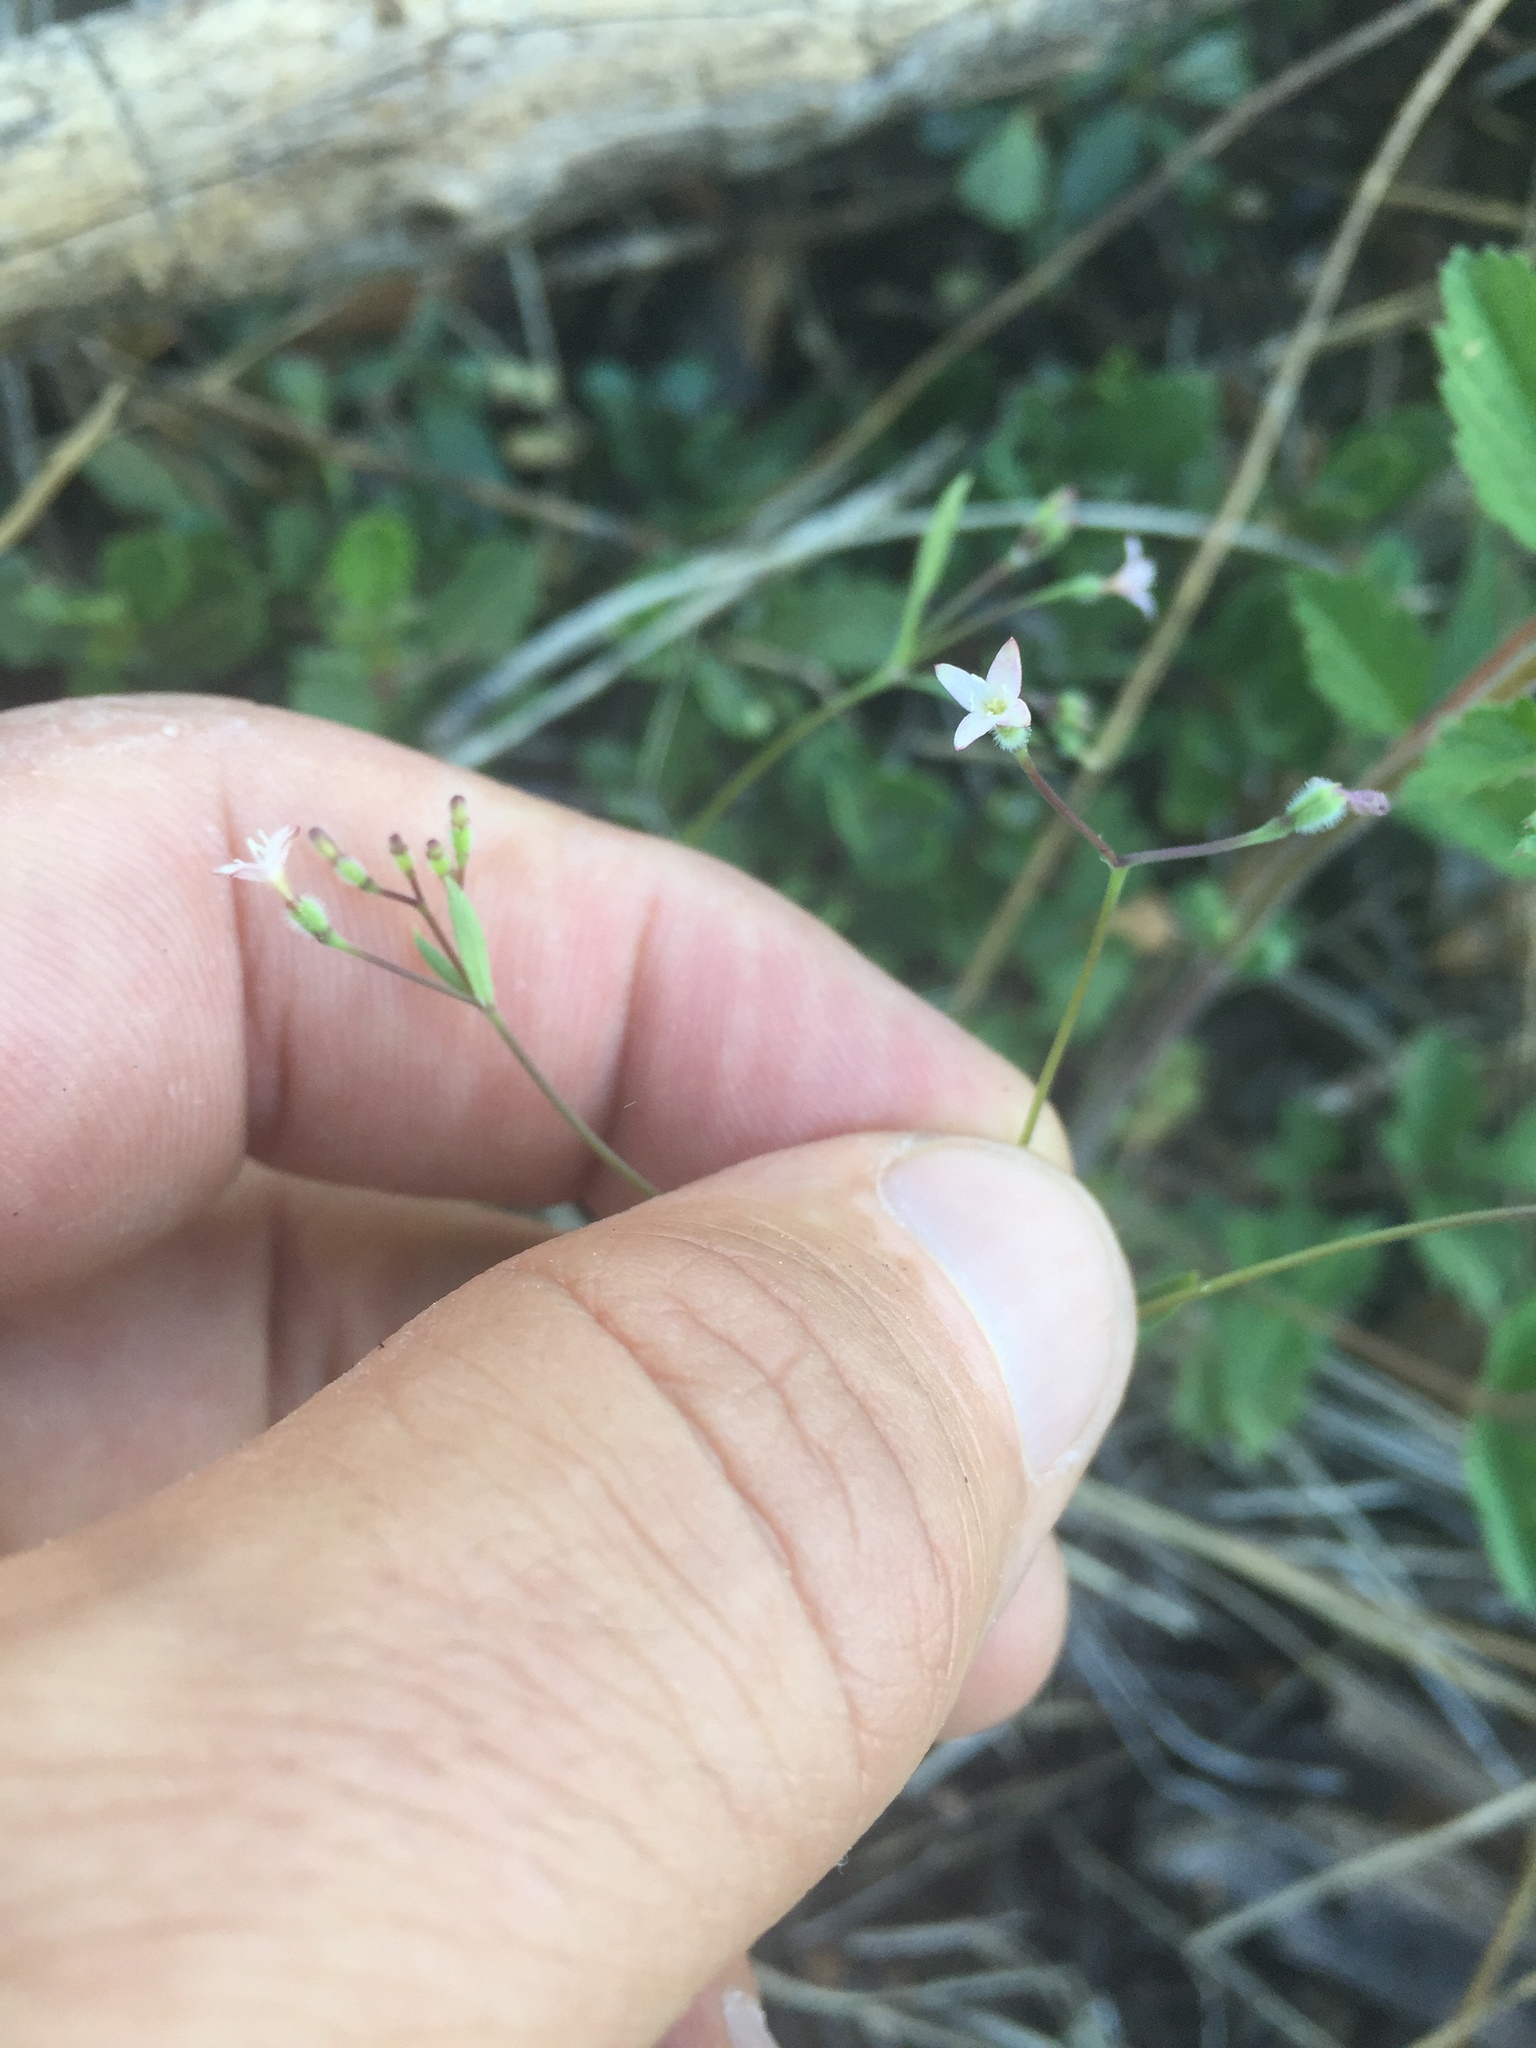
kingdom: Plantae
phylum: Tracheophyta
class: Magnoliopsida
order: Gentianales
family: Rubiaceae
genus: Kelloggia
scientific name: Kelloggia galioides
